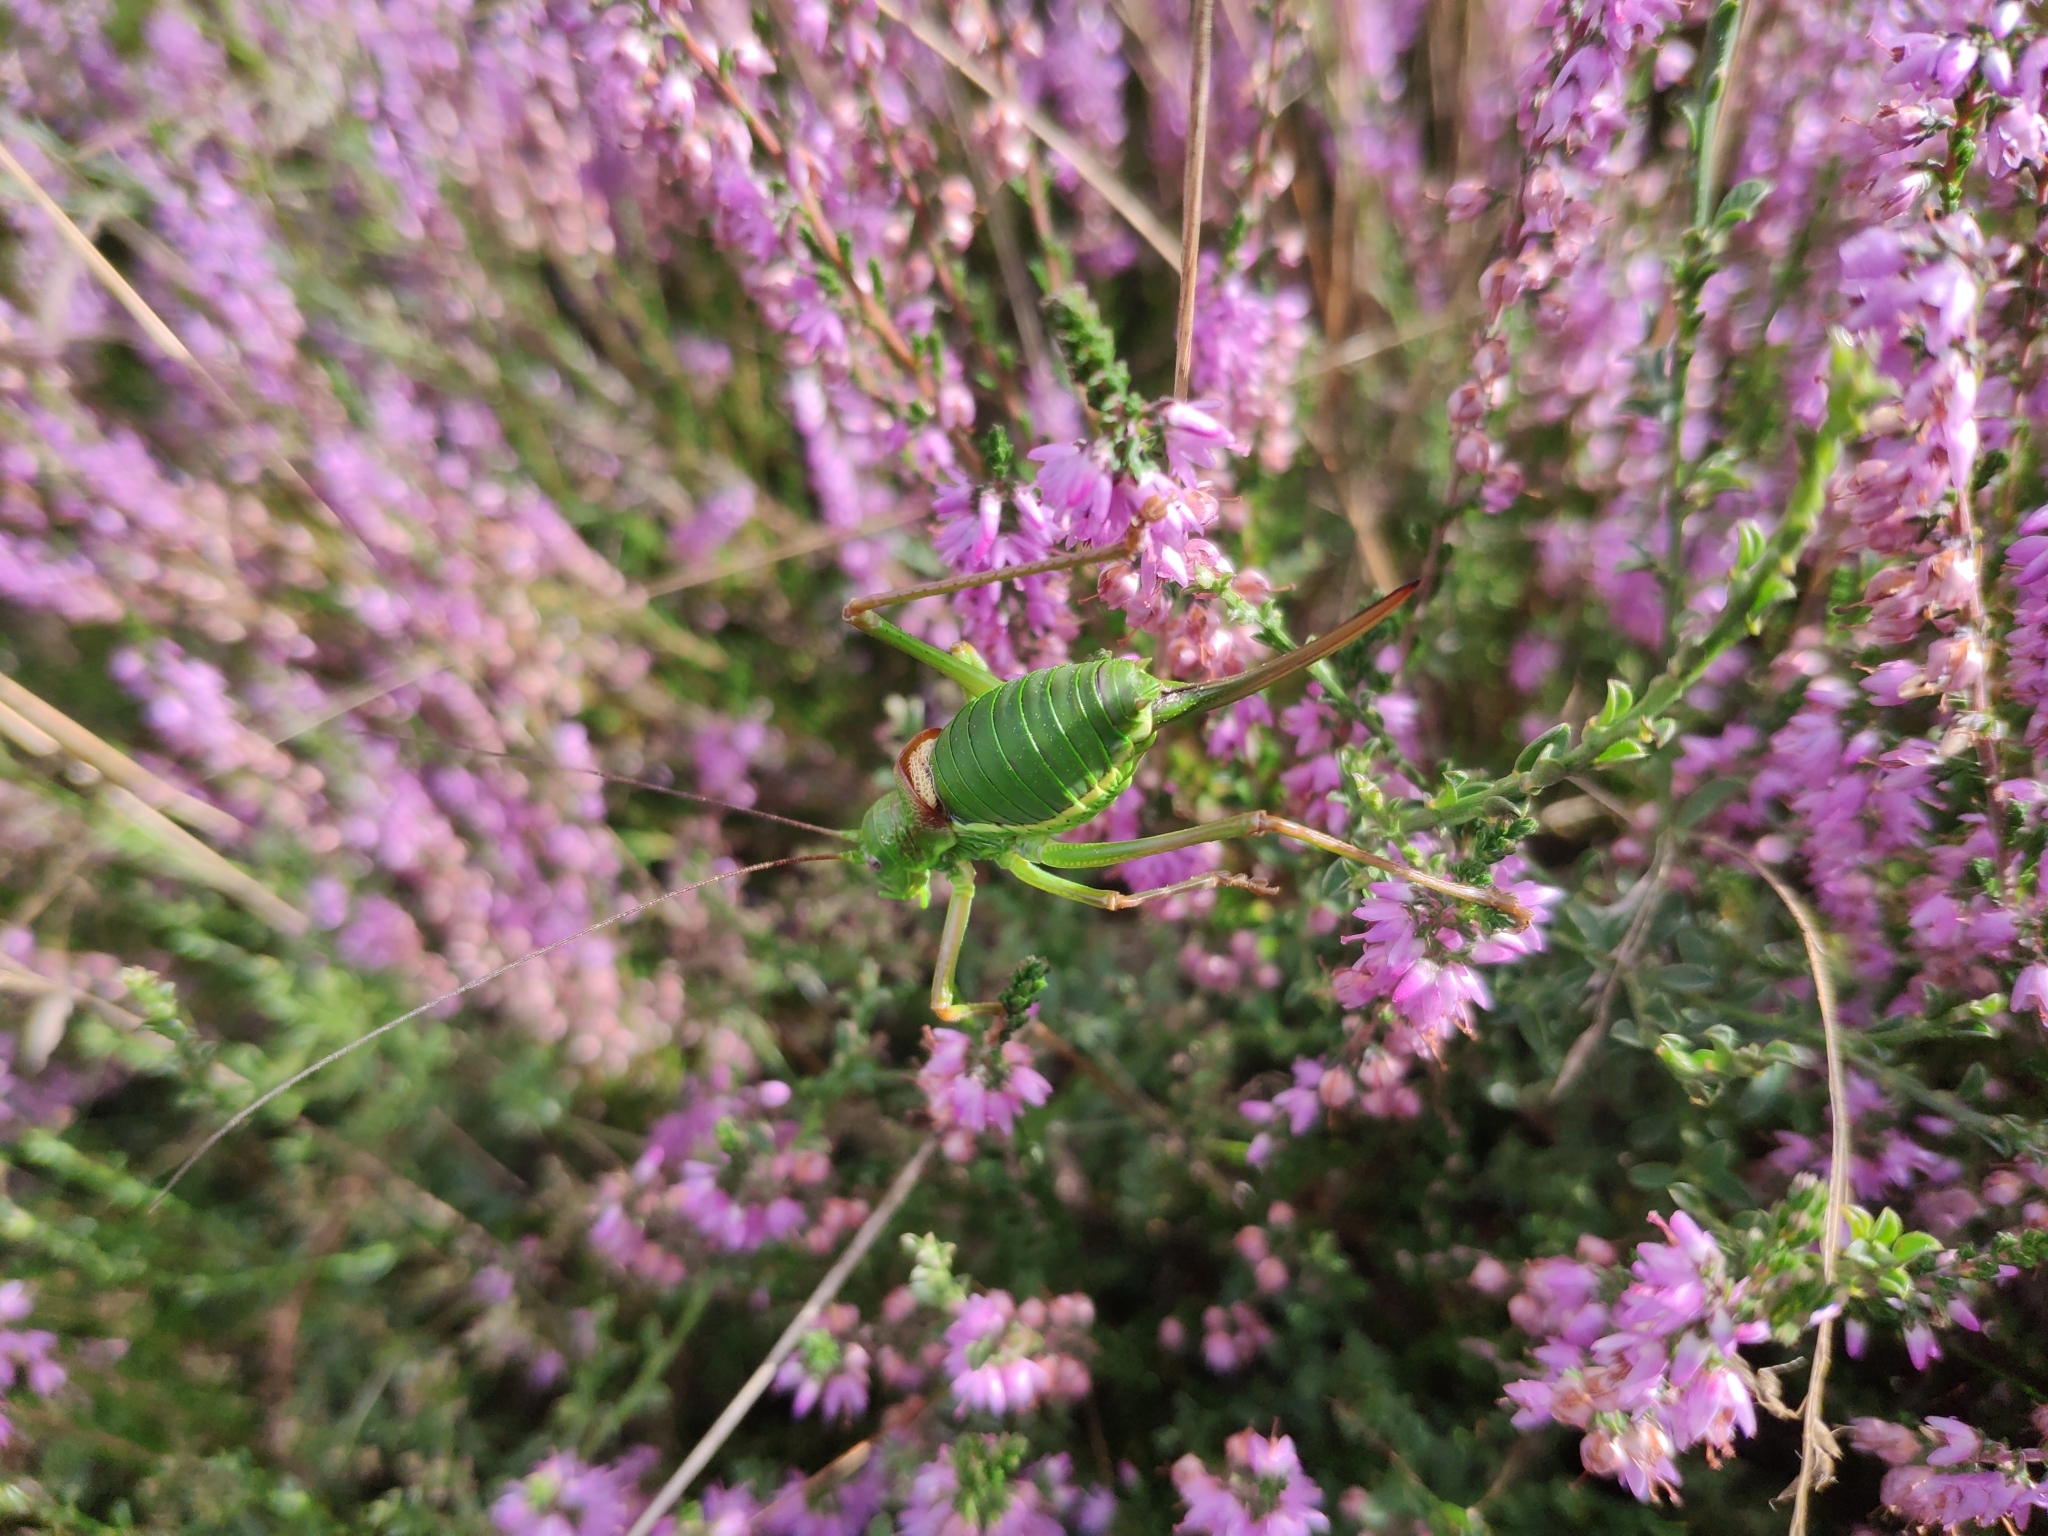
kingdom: Animalia
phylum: Arthropoda
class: Insecta
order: Orthoptera
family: Tettigoniidae
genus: Ephippiger
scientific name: Ephippiger diurnus
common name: Western saddle bush-cricket
